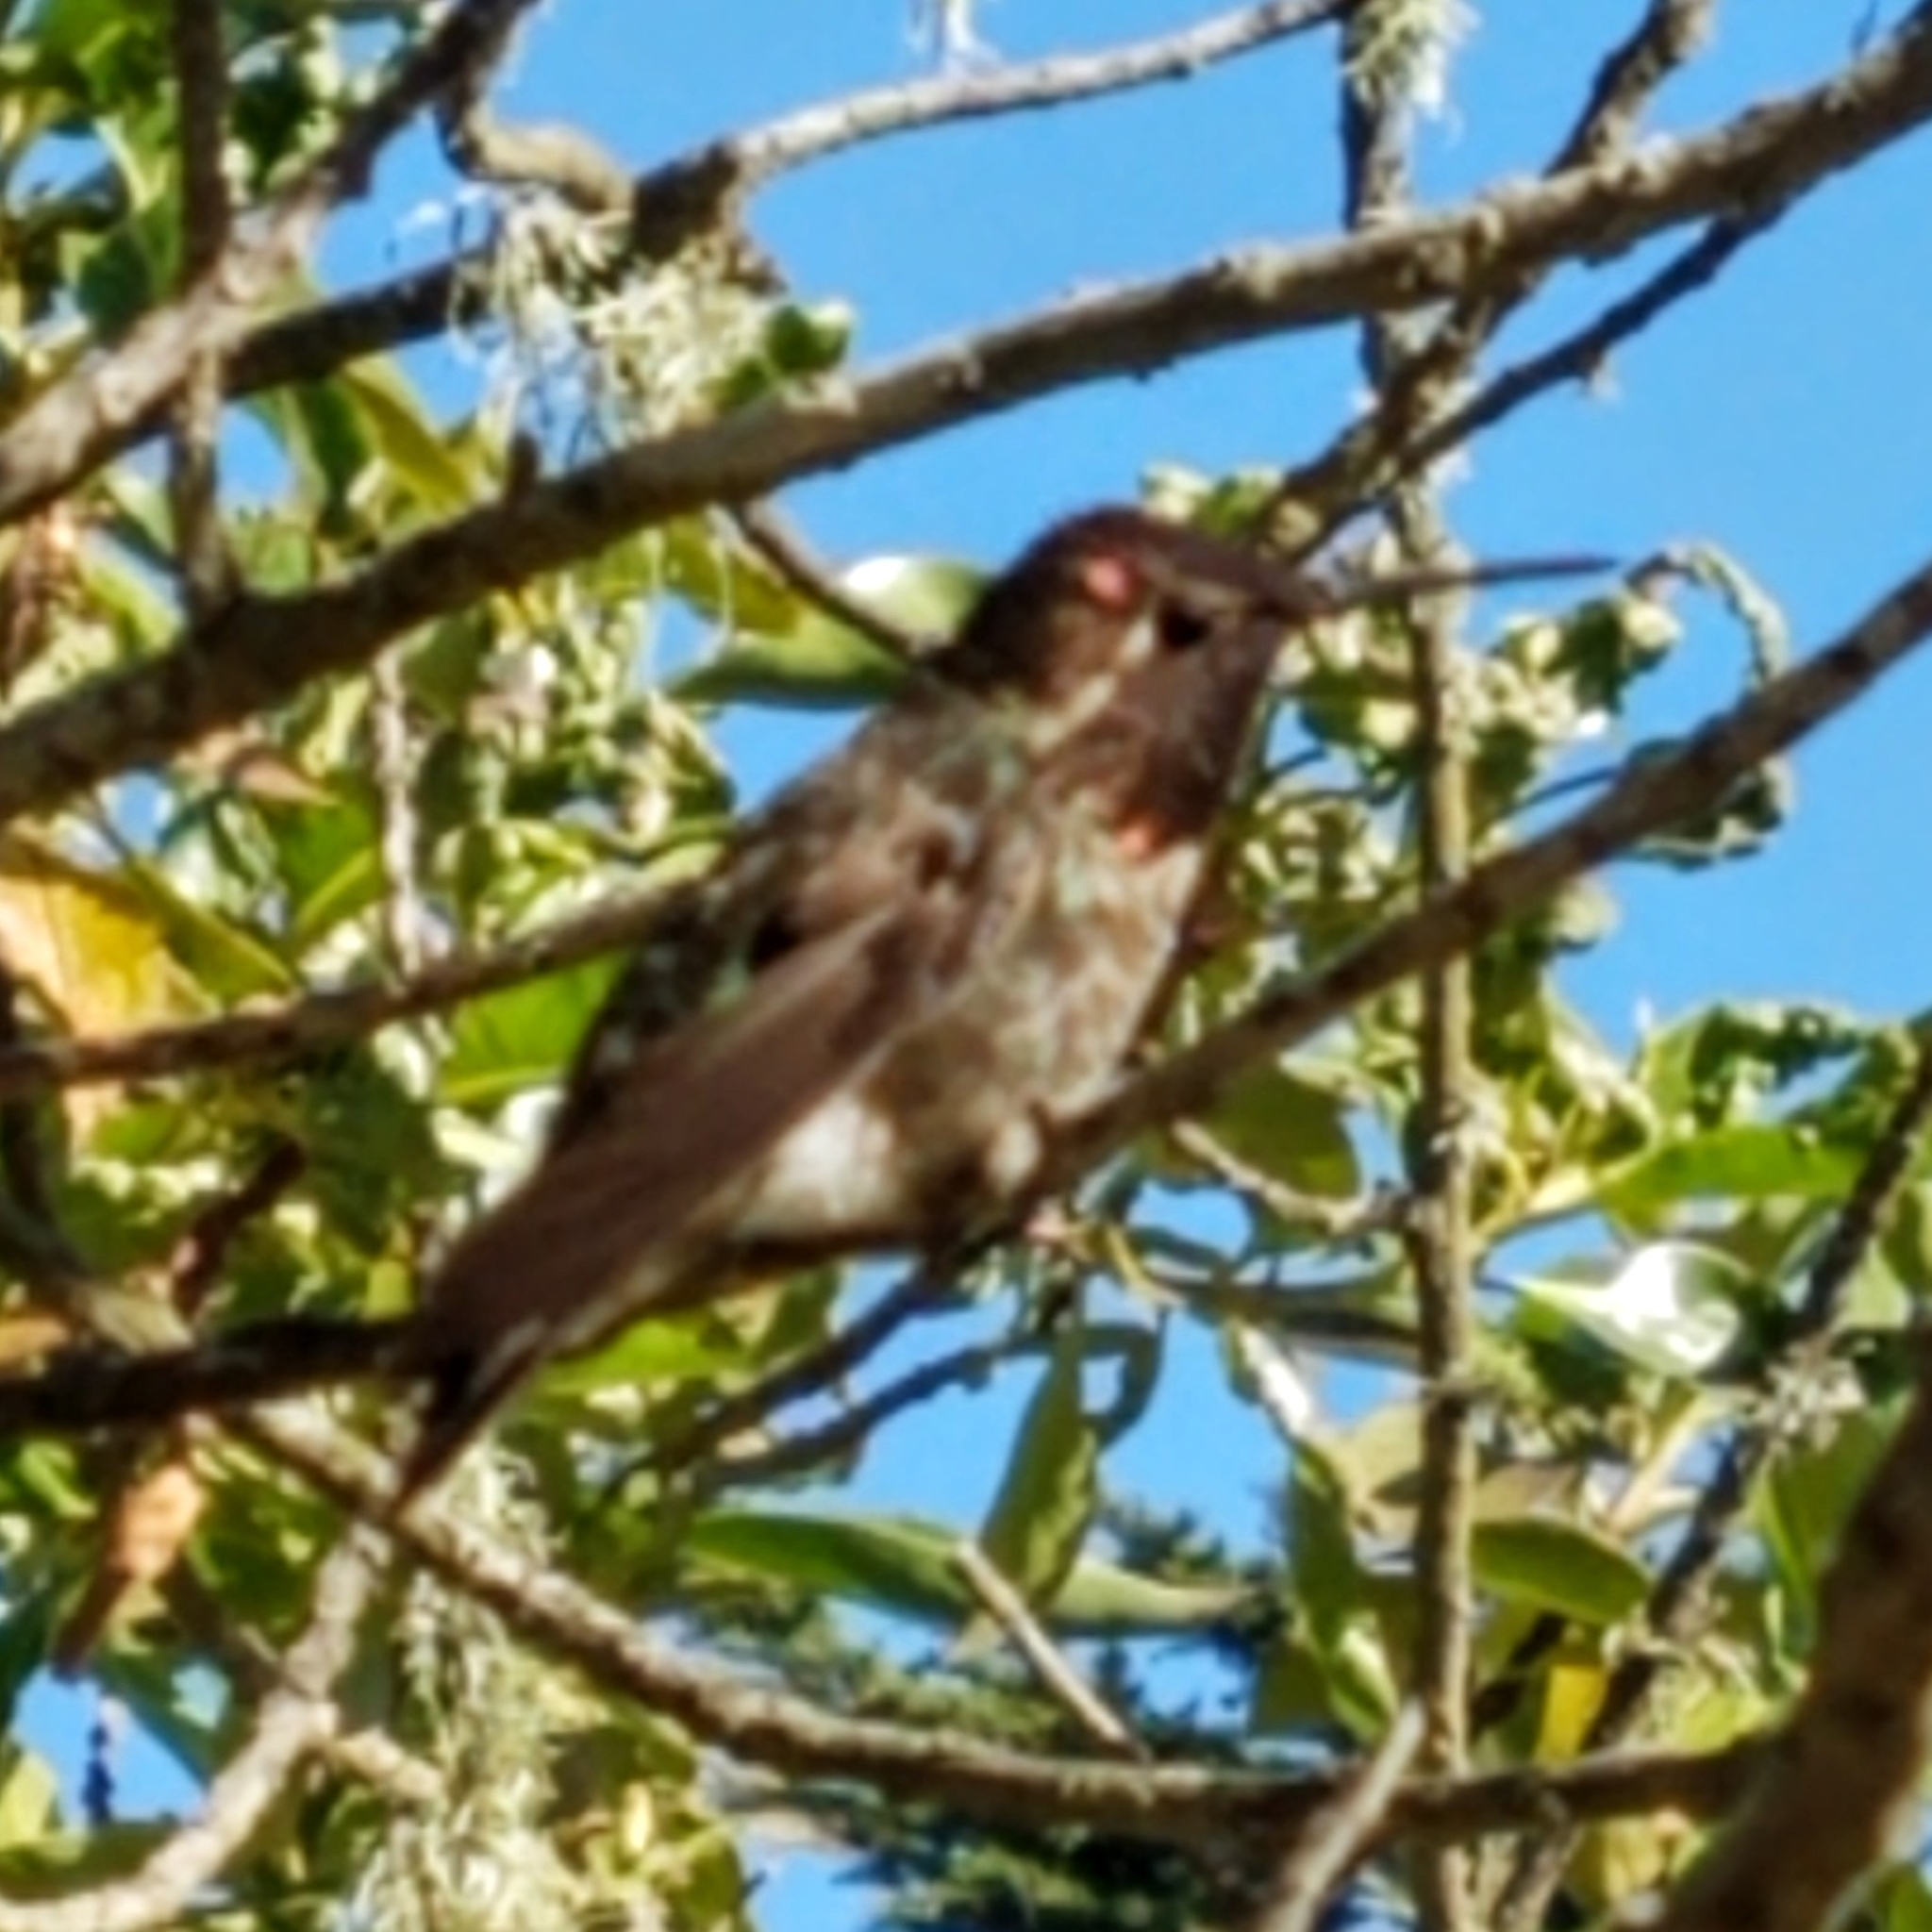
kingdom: Animalia
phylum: Chordata
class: Aves
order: Apodiformes
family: Trochilidae
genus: Calypte
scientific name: Calypte anna
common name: Anna's hummingbird
